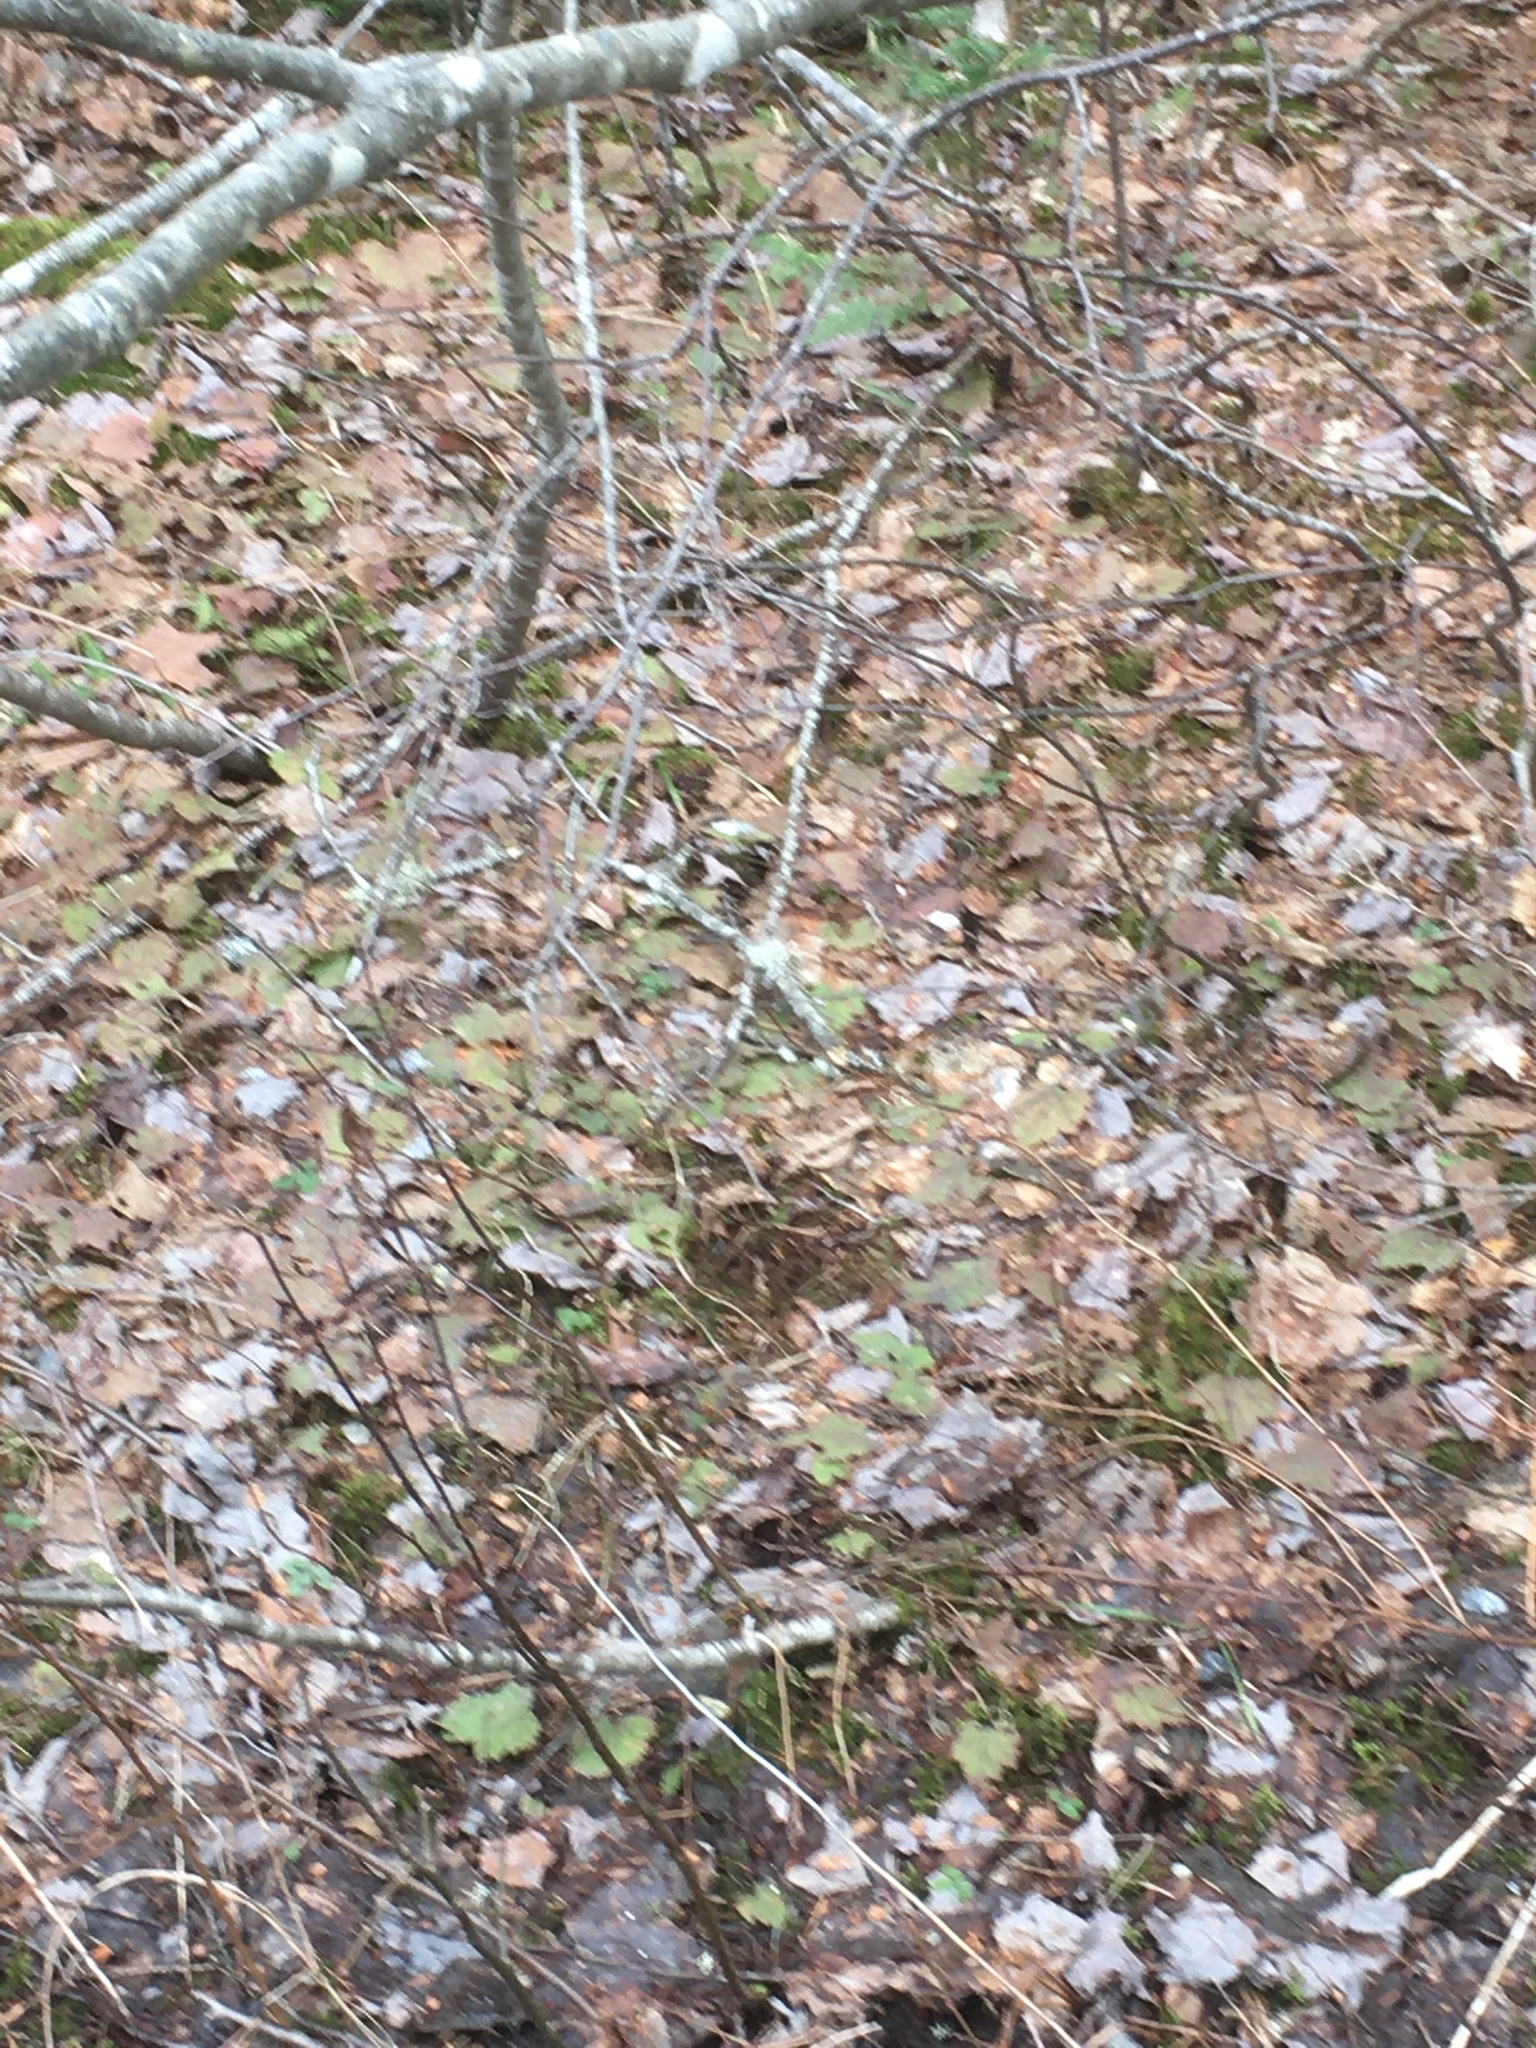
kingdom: Plantae
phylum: Tracheophyta
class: Magnoliopsida
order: Saxifragales
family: Saxifragaceae
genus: Tiarella
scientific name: Tiarella stolonifera
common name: Stoloniferous foamflower
